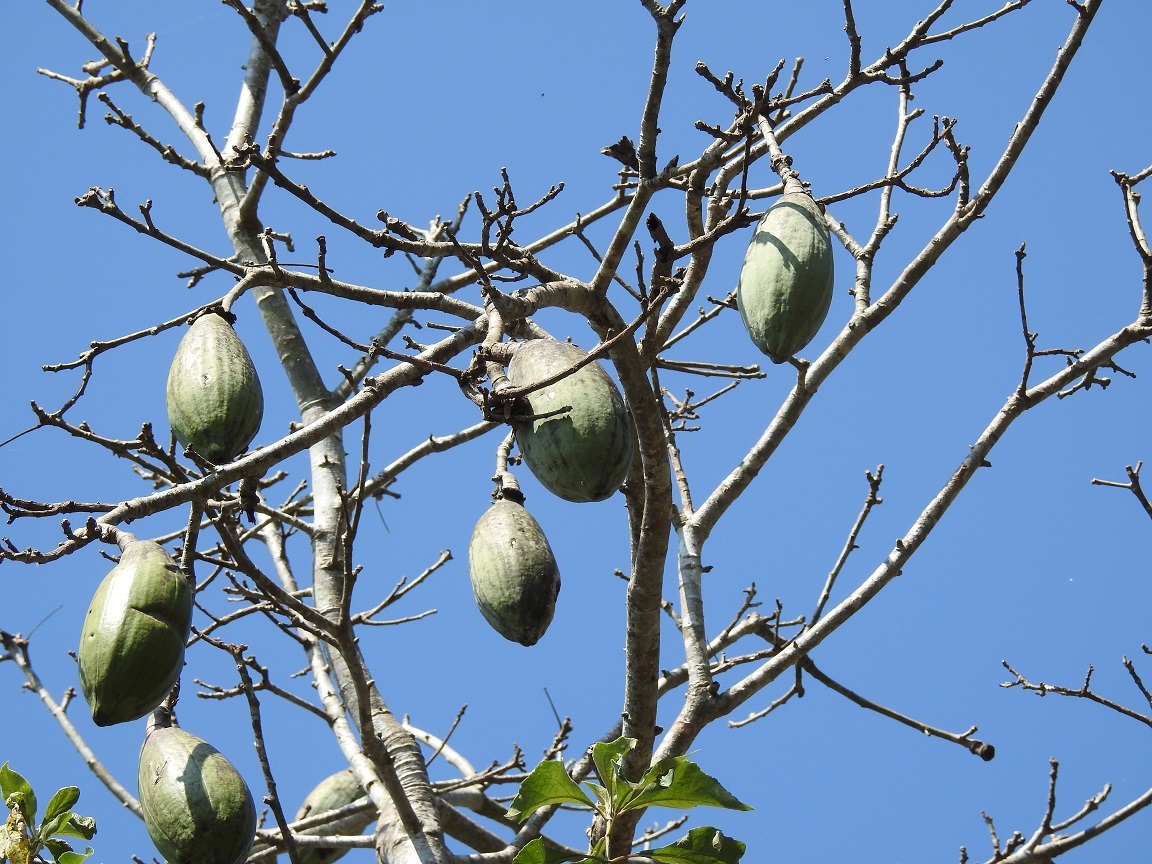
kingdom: Plantae
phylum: Tracheophyta
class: Magnoliopsida
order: Malvales
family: Malvaceae
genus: Ceiba
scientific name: Ceiba aesculifolia
